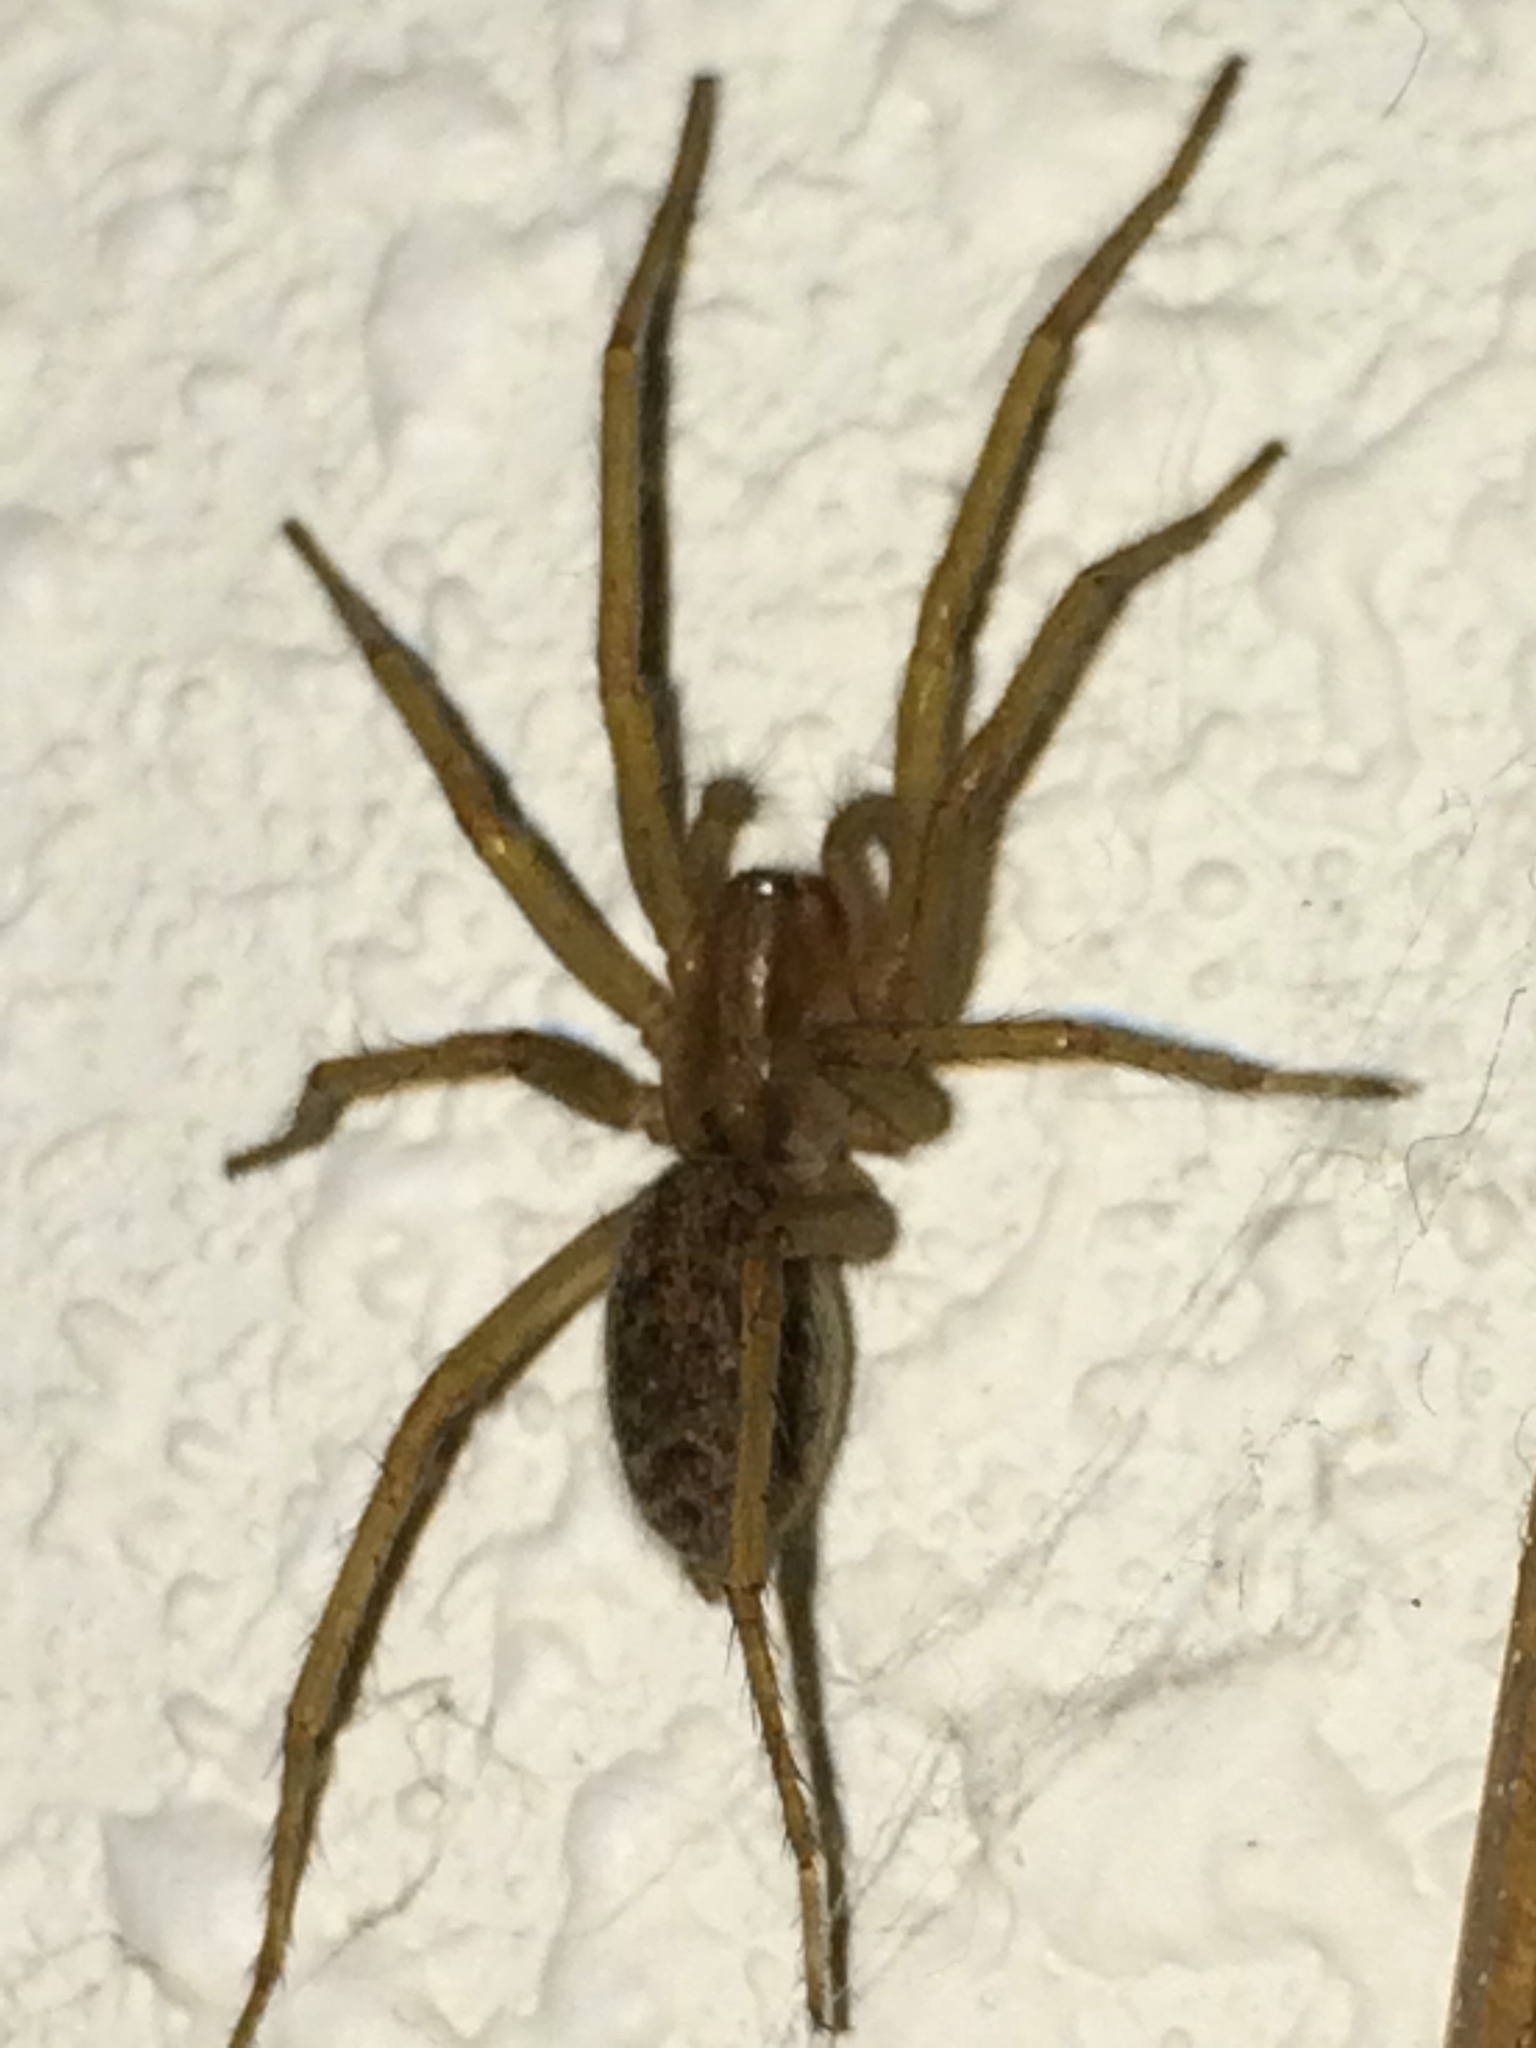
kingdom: Animalia
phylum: Arthropoda
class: Arachnida
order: Araneae
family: Agelenidae
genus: Eratigena
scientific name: Eratigena agrestis
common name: Hobo spider
